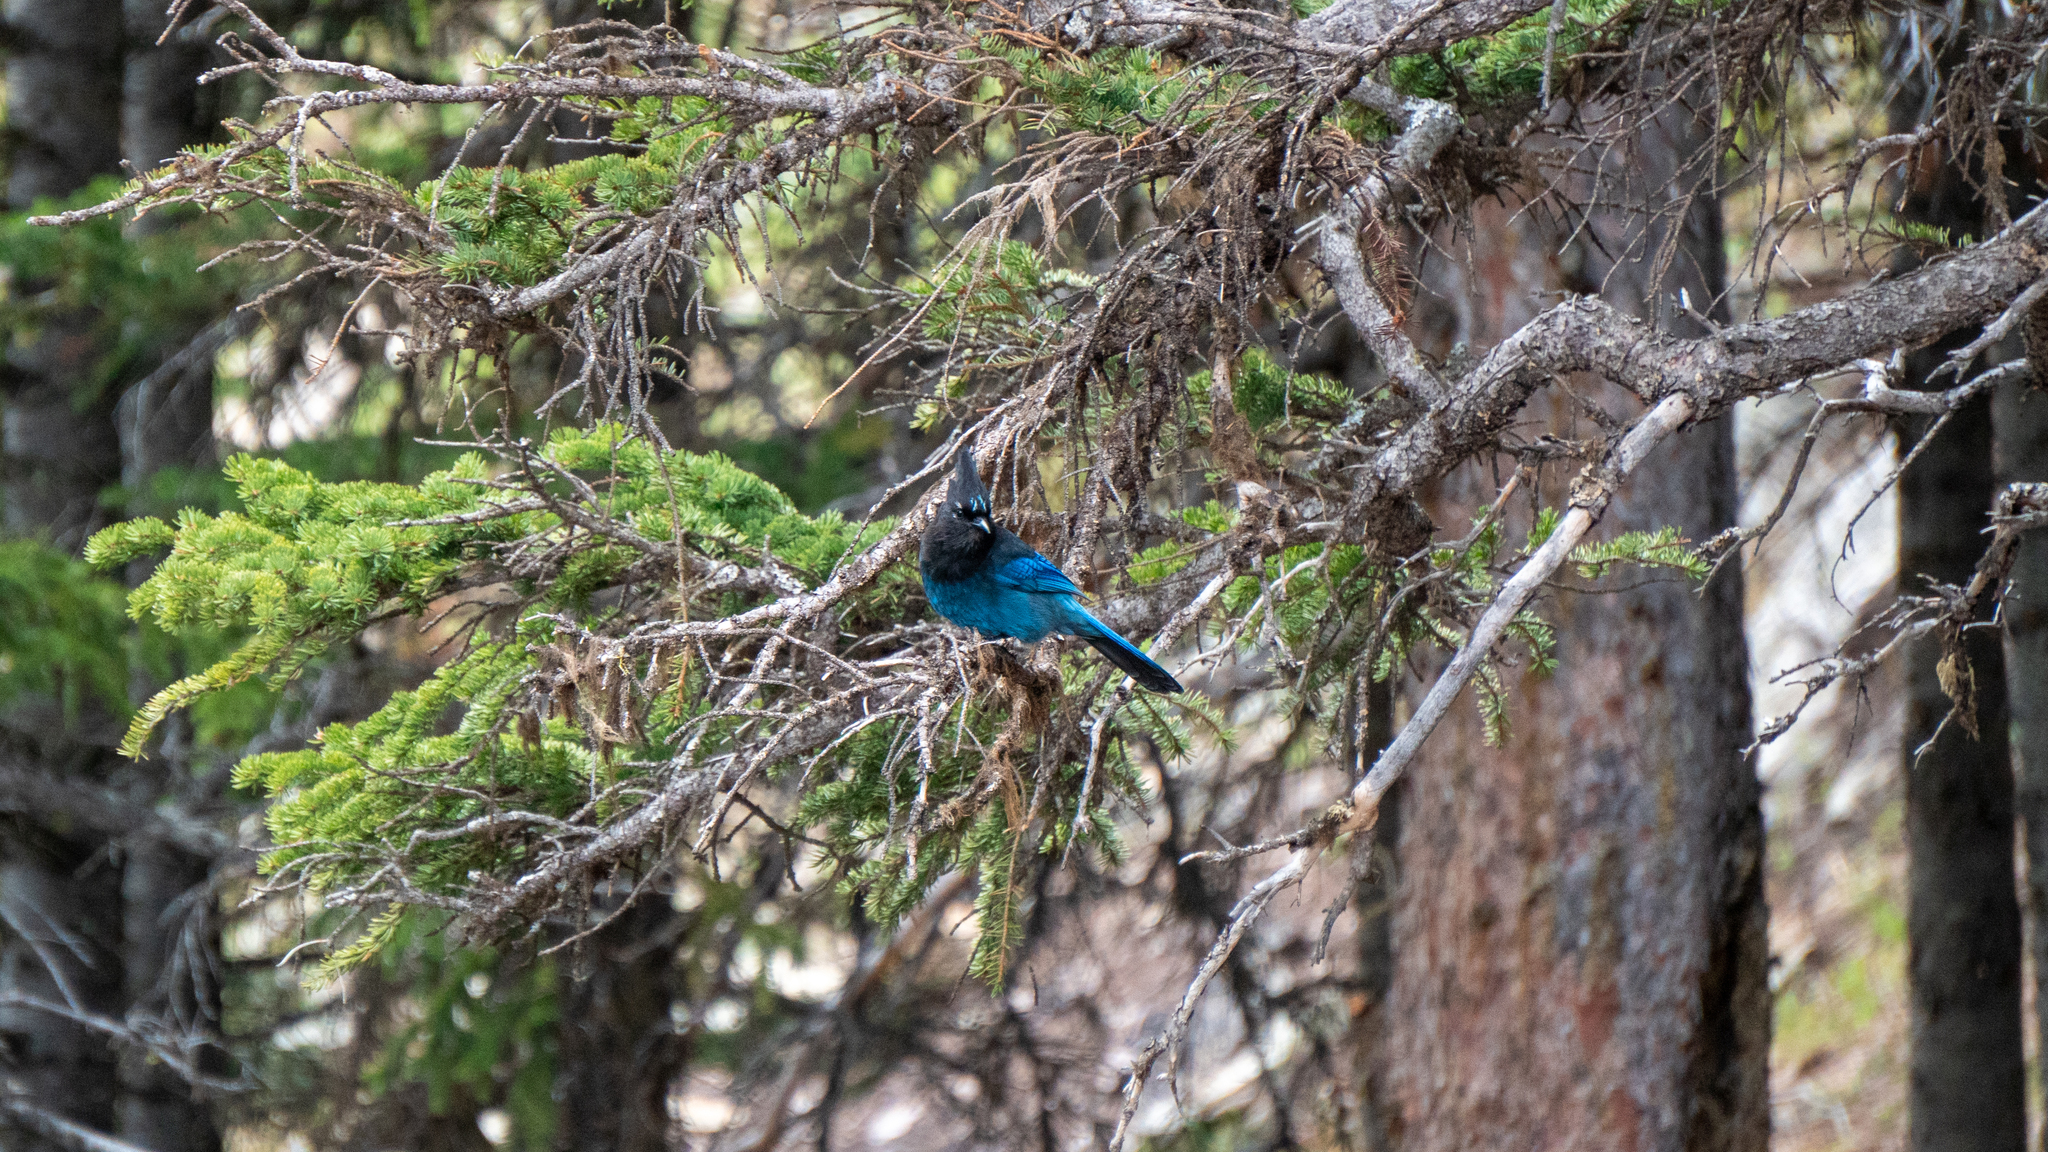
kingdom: Animalia
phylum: Chordata
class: Aves
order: Passeriformes
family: Corvidae
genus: Cyanocitta
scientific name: Cyanocitta stelleri
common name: Steller's jay
